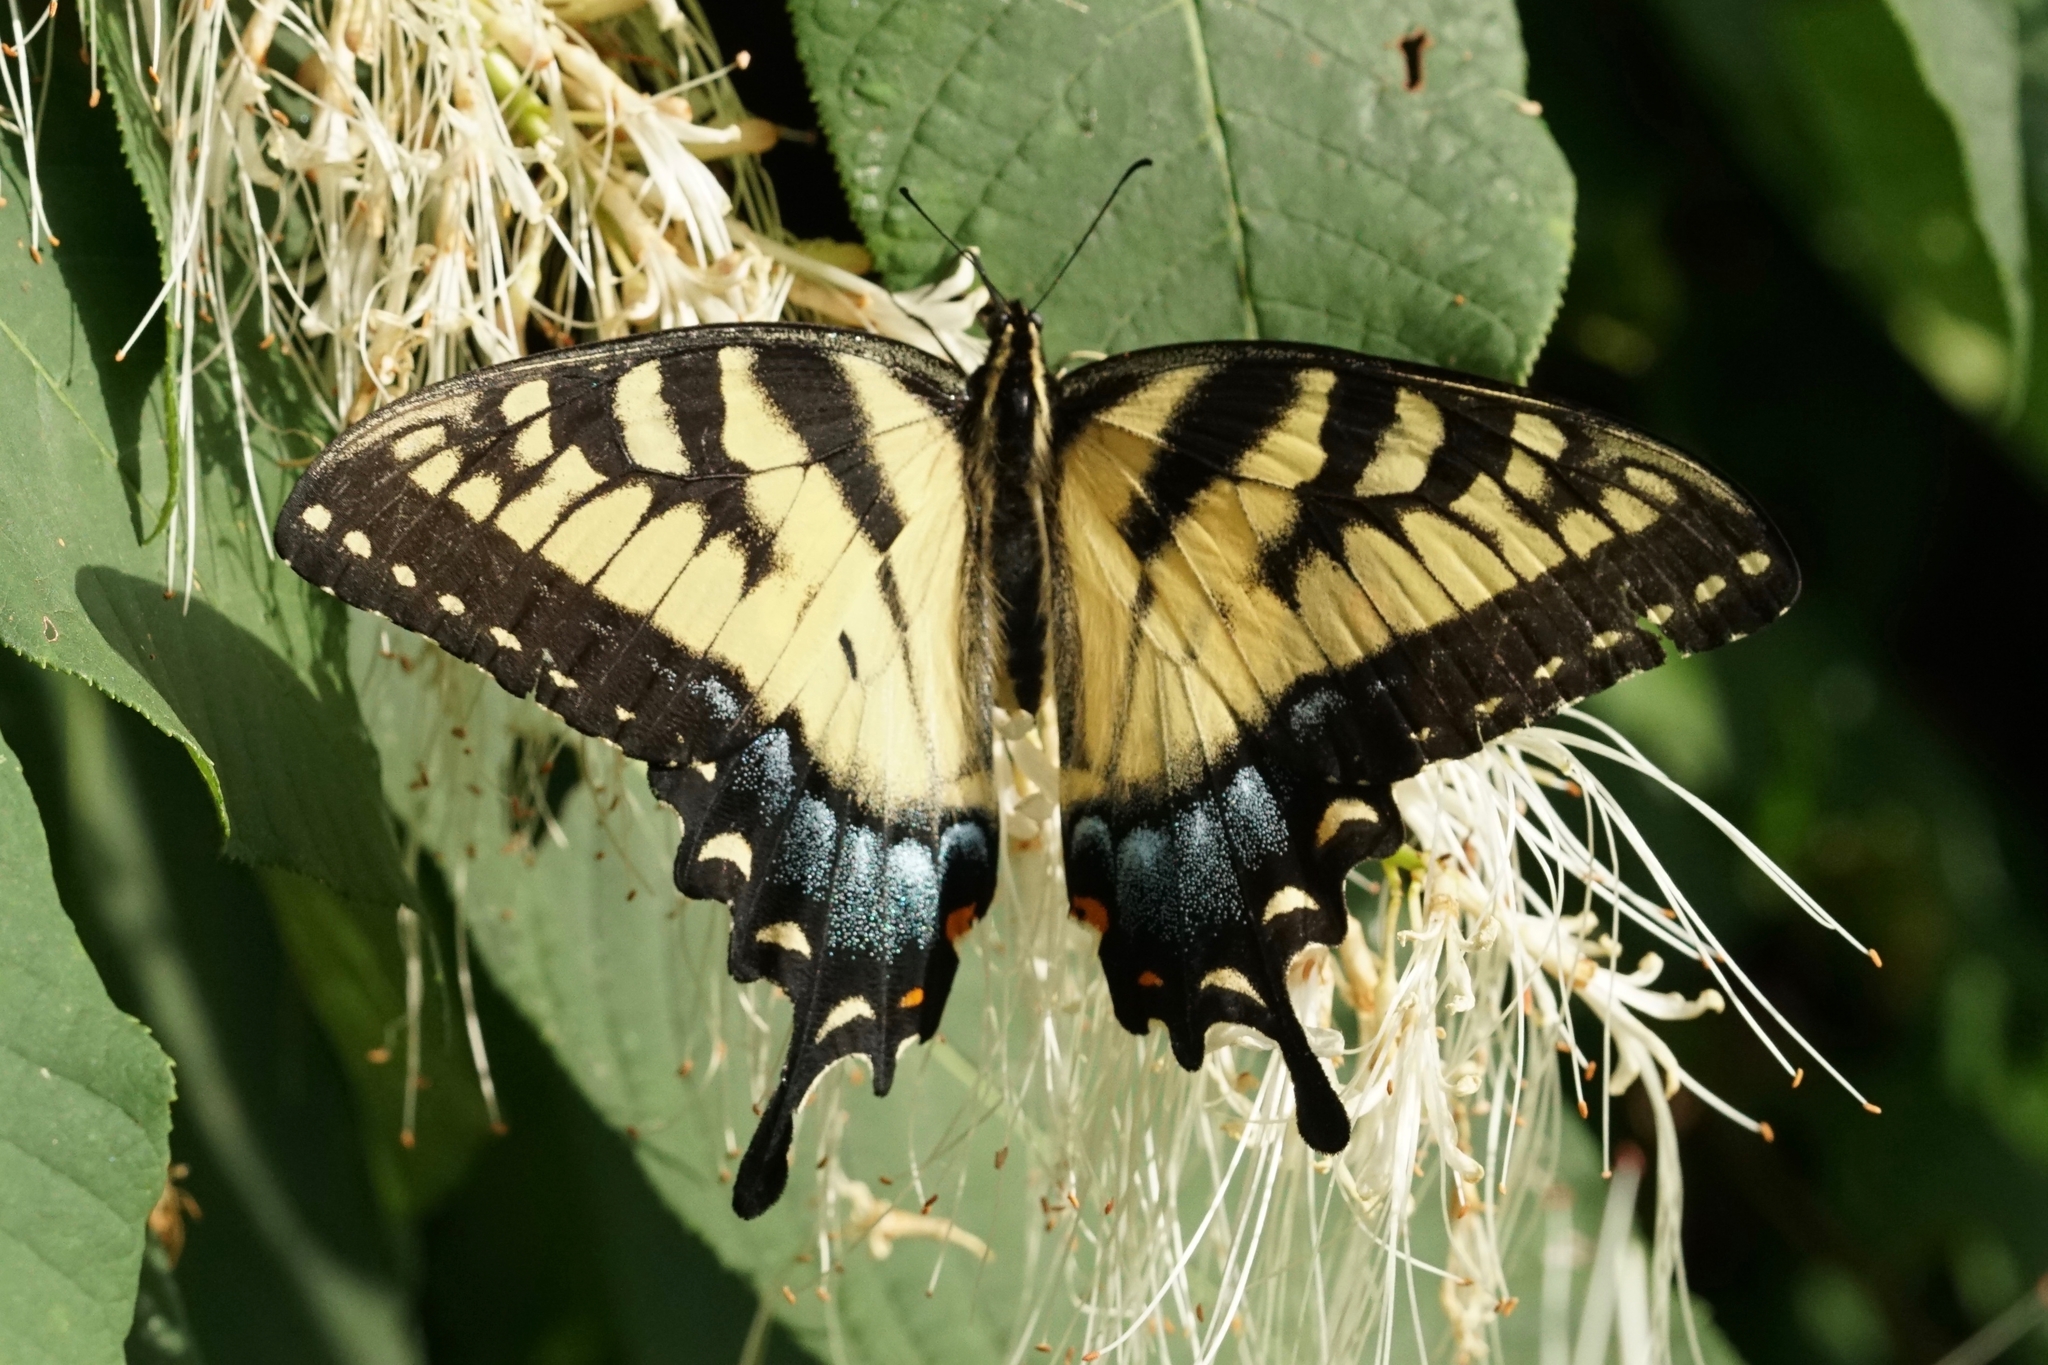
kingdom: Animalia
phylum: Arthropoda
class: Insecta
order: Lepidoptera
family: Papilionidae
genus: Papilio
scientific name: Papilio glaucus
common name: Tiger swallowtail
